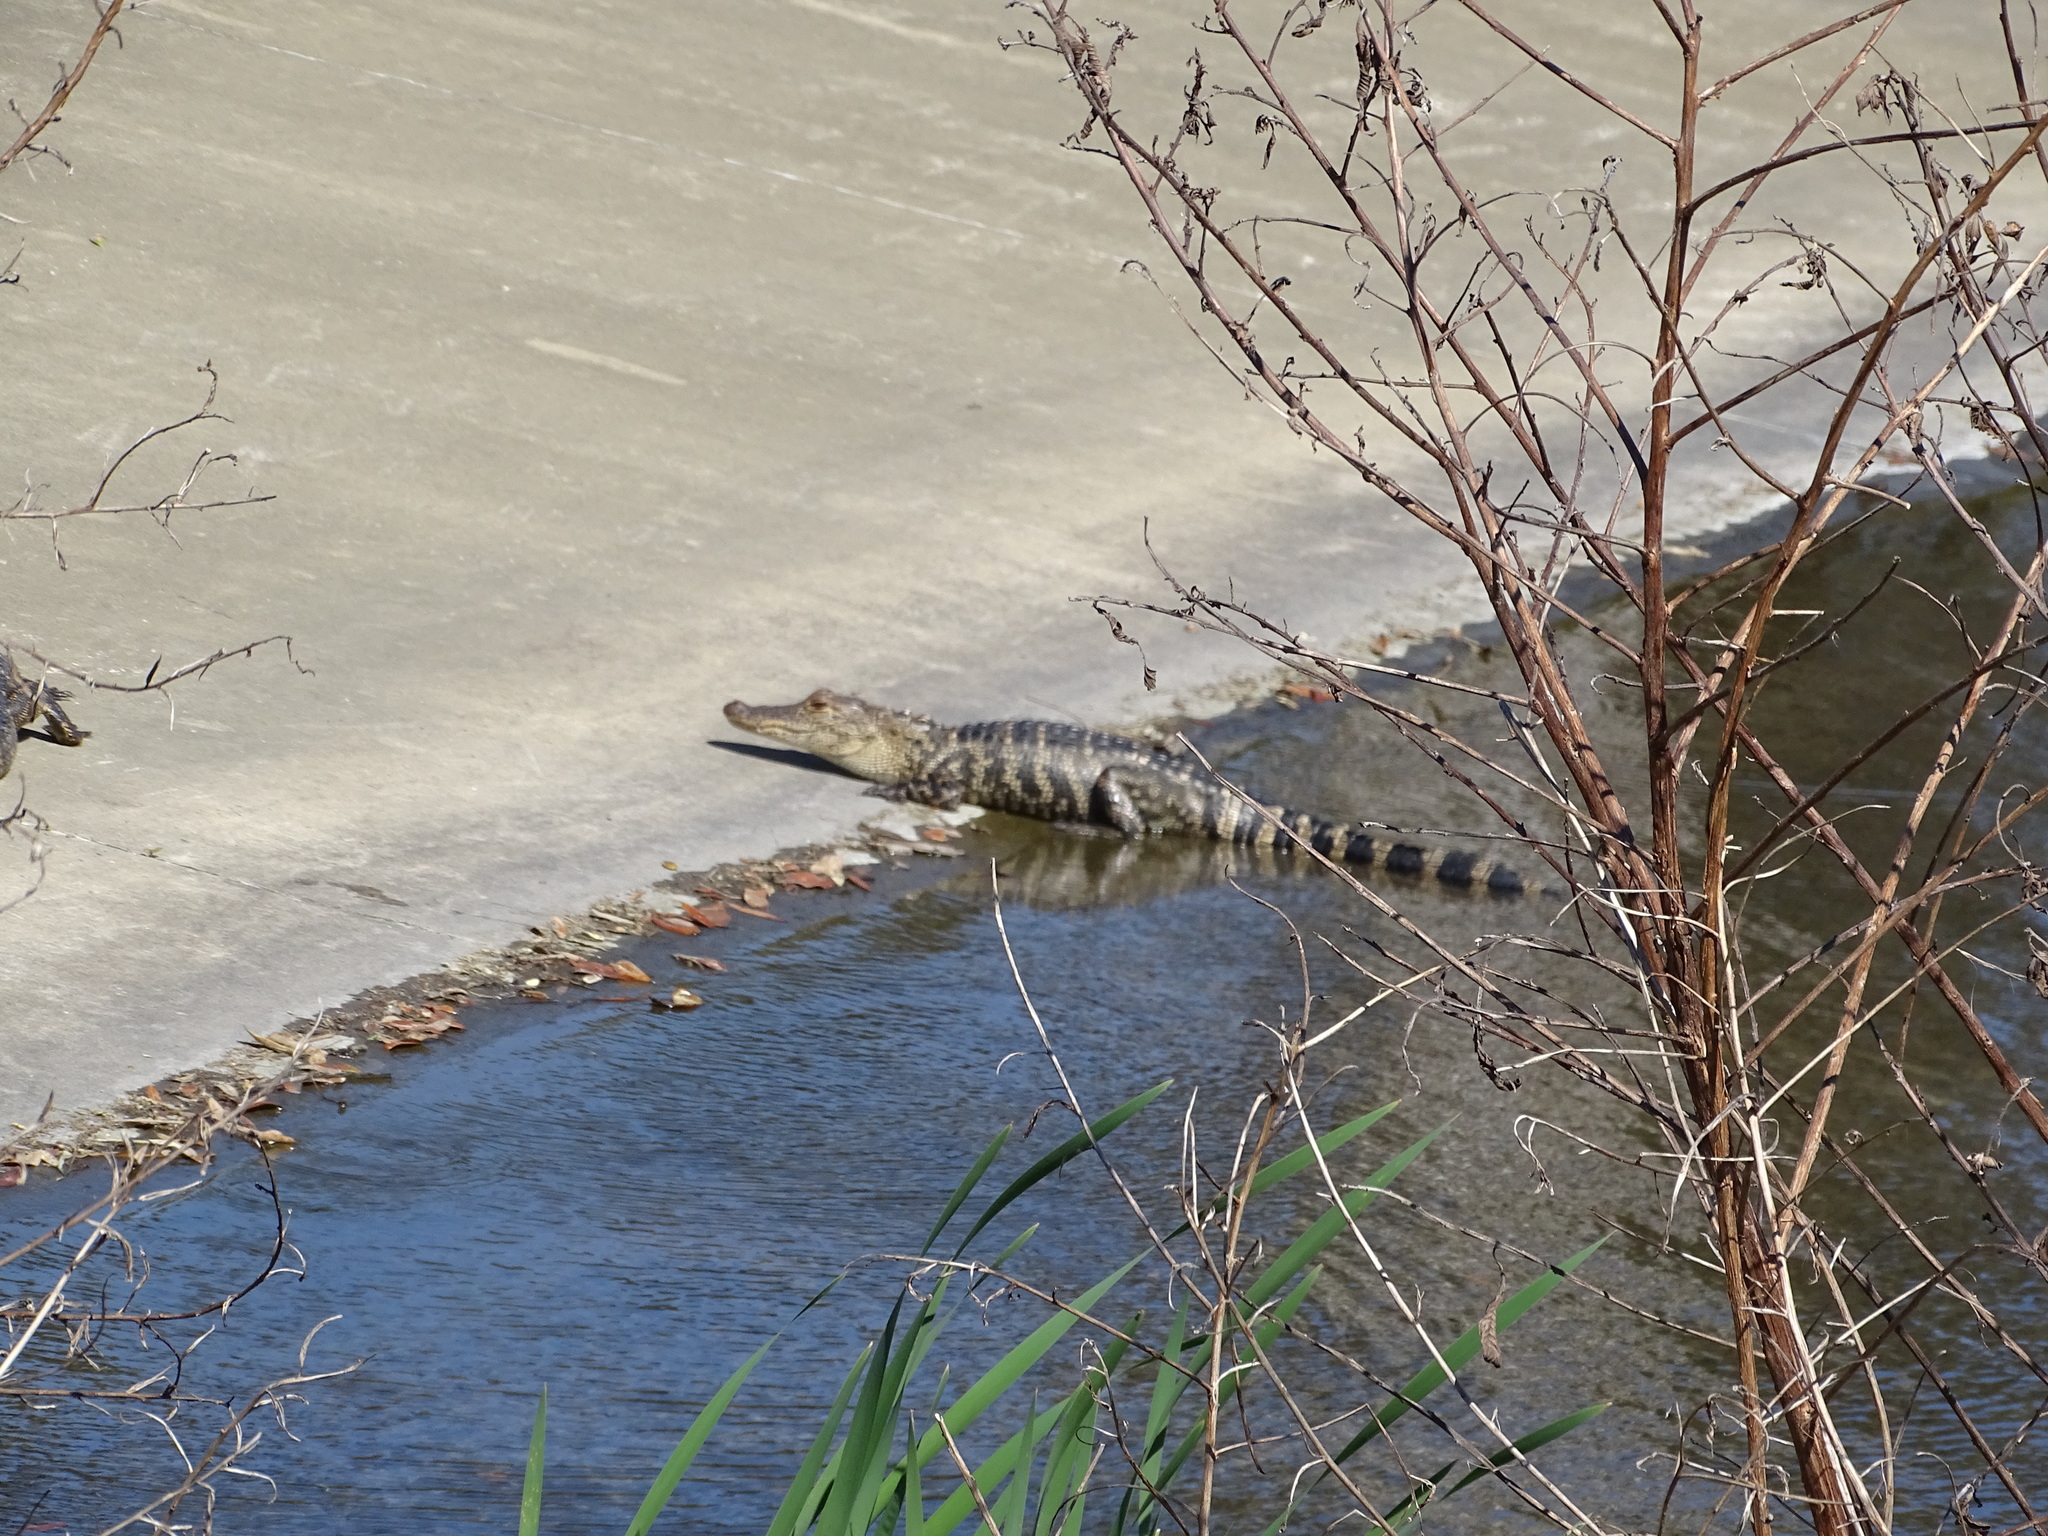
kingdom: Animalia
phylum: Chordata
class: Crocodylia
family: Alligatoridae
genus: Alligator
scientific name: Alligator mississippiensis
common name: American alligator
